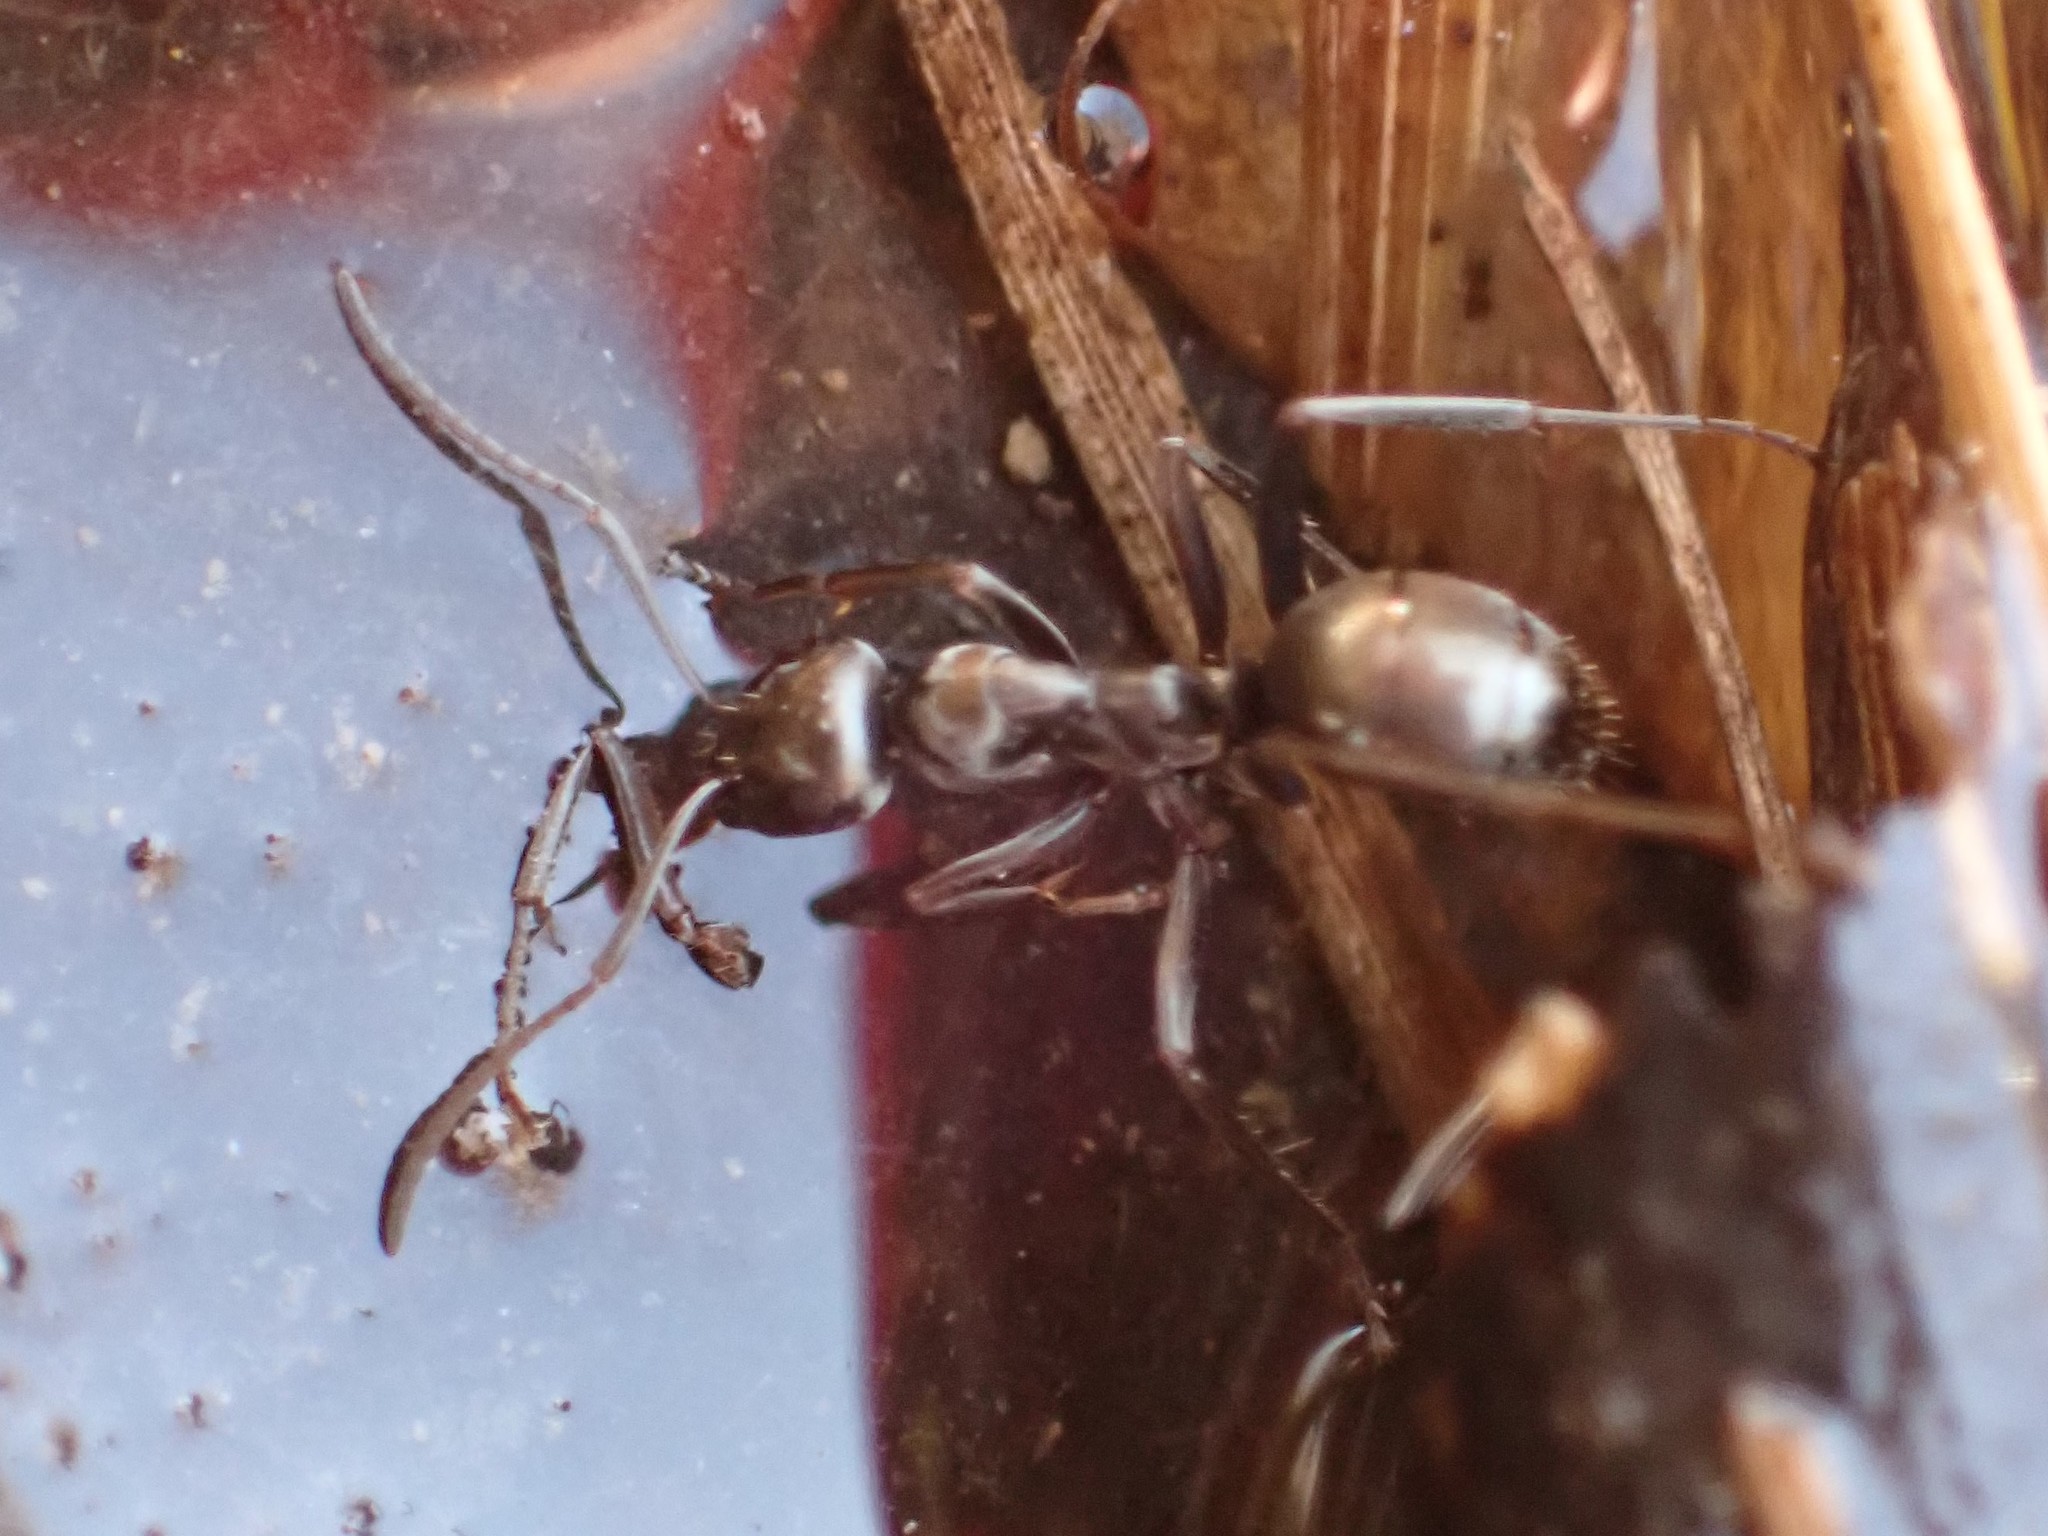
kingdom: Animalia
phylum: Arthropoda
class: Insecta
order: Hymenoptera
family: Formicidae
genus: Formica
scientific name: Formica
